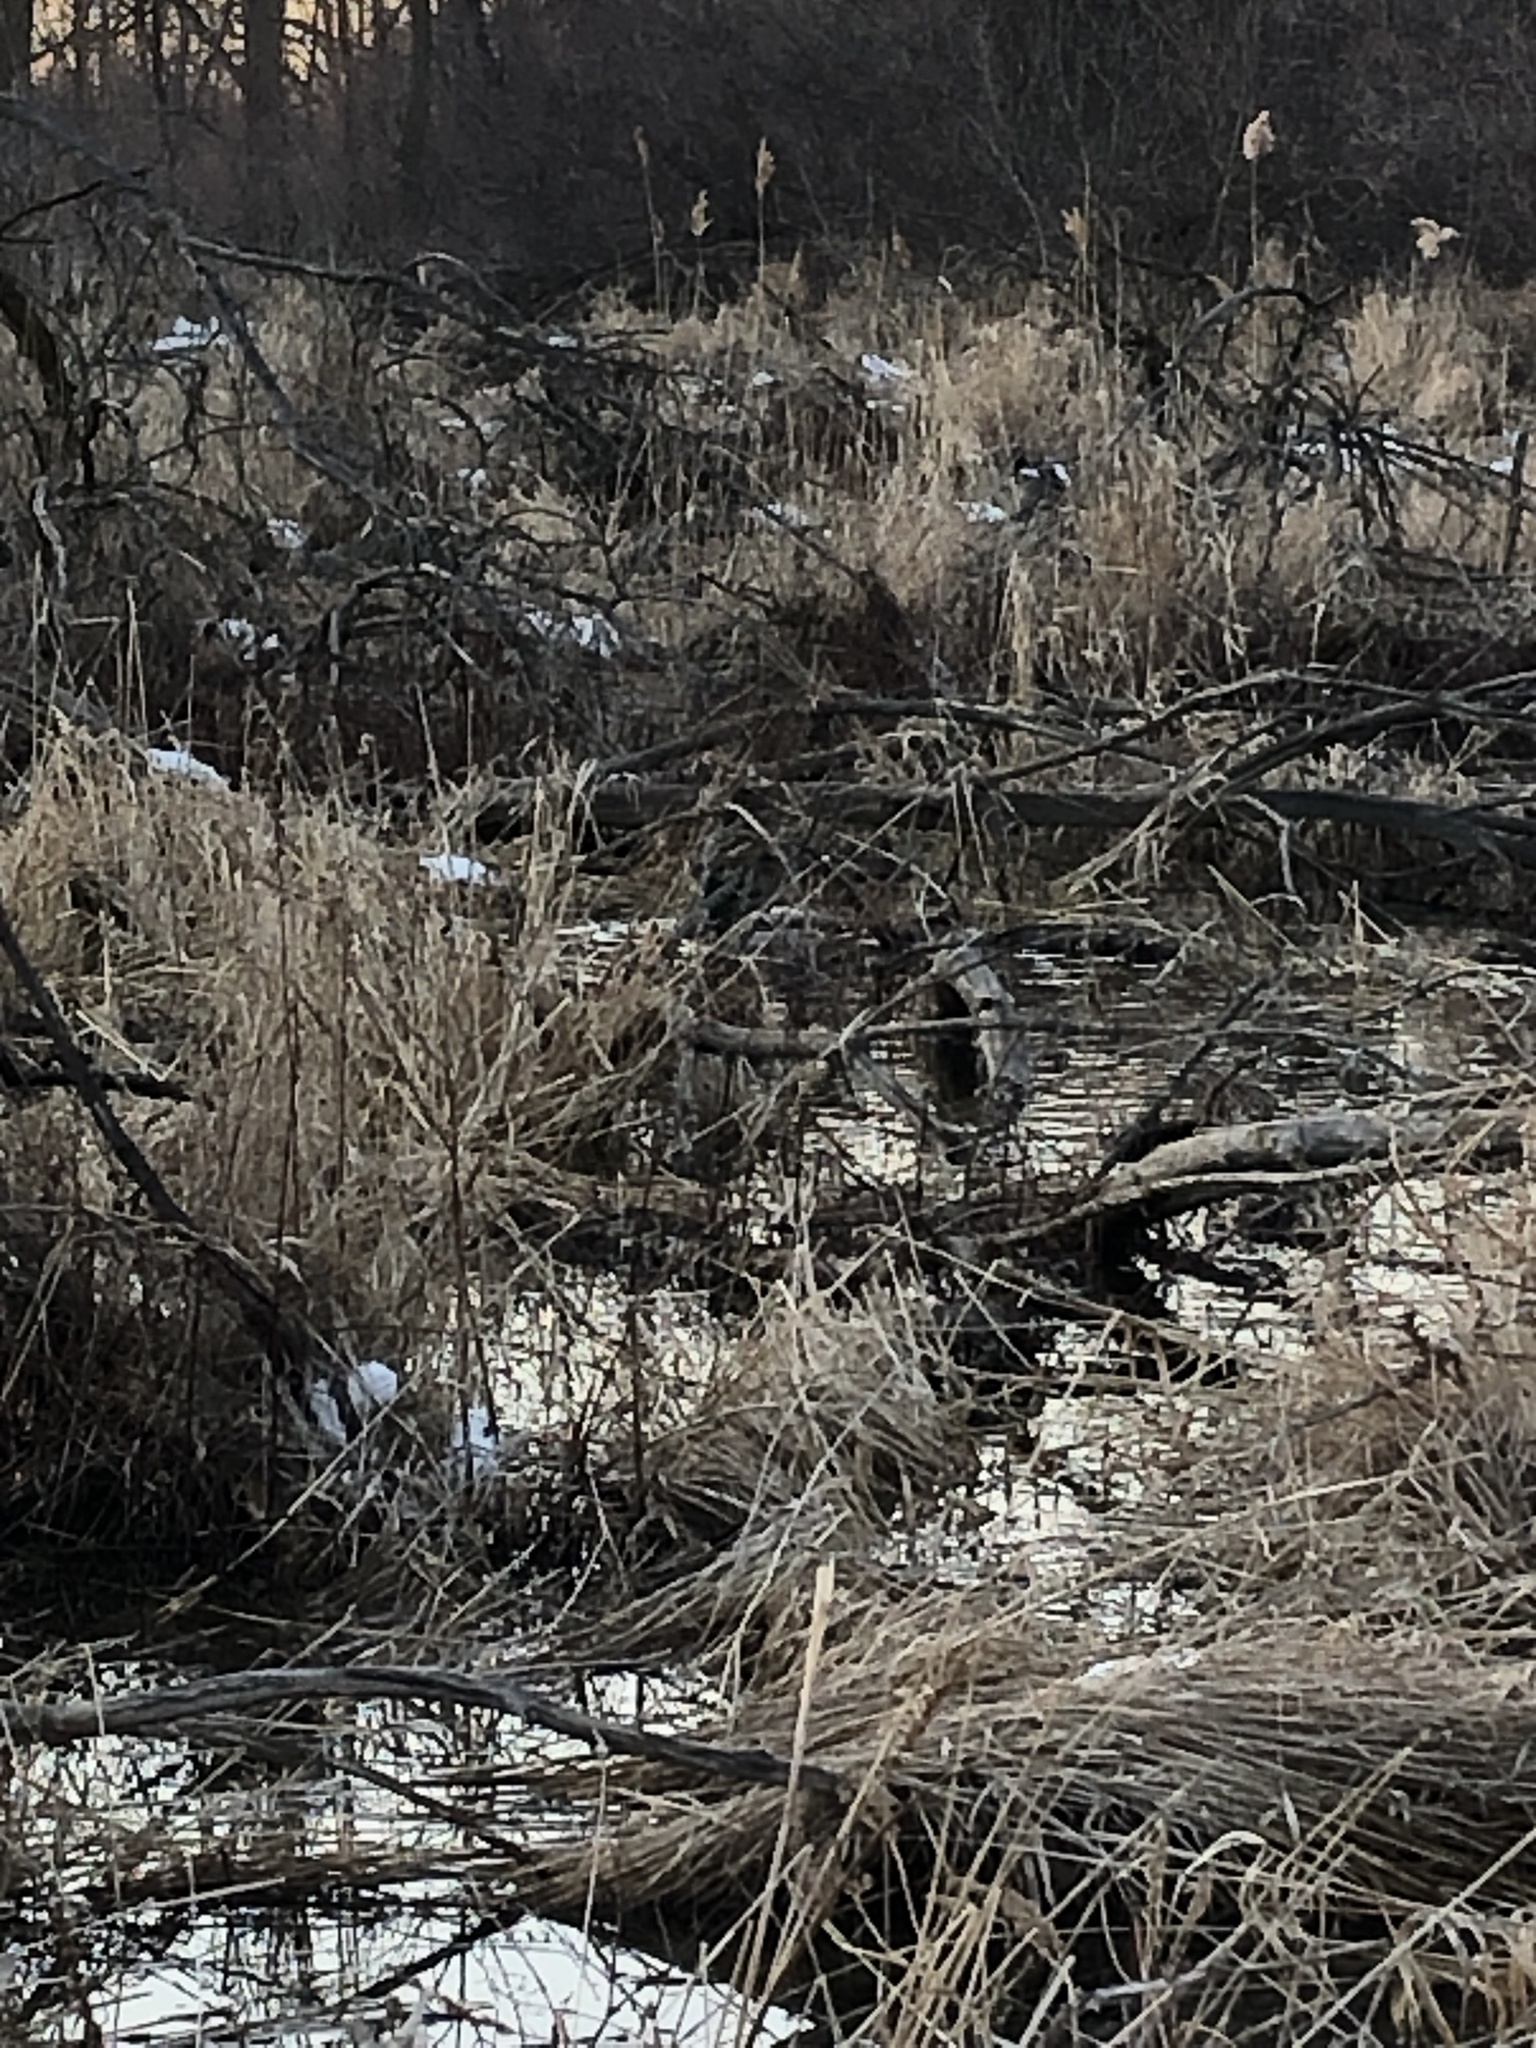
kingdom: Animalia
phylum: Chordata
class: Aves
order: Anseriformes
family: Anatidae
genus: Anas
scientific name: Anas platyrhynchos
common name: Mallard
